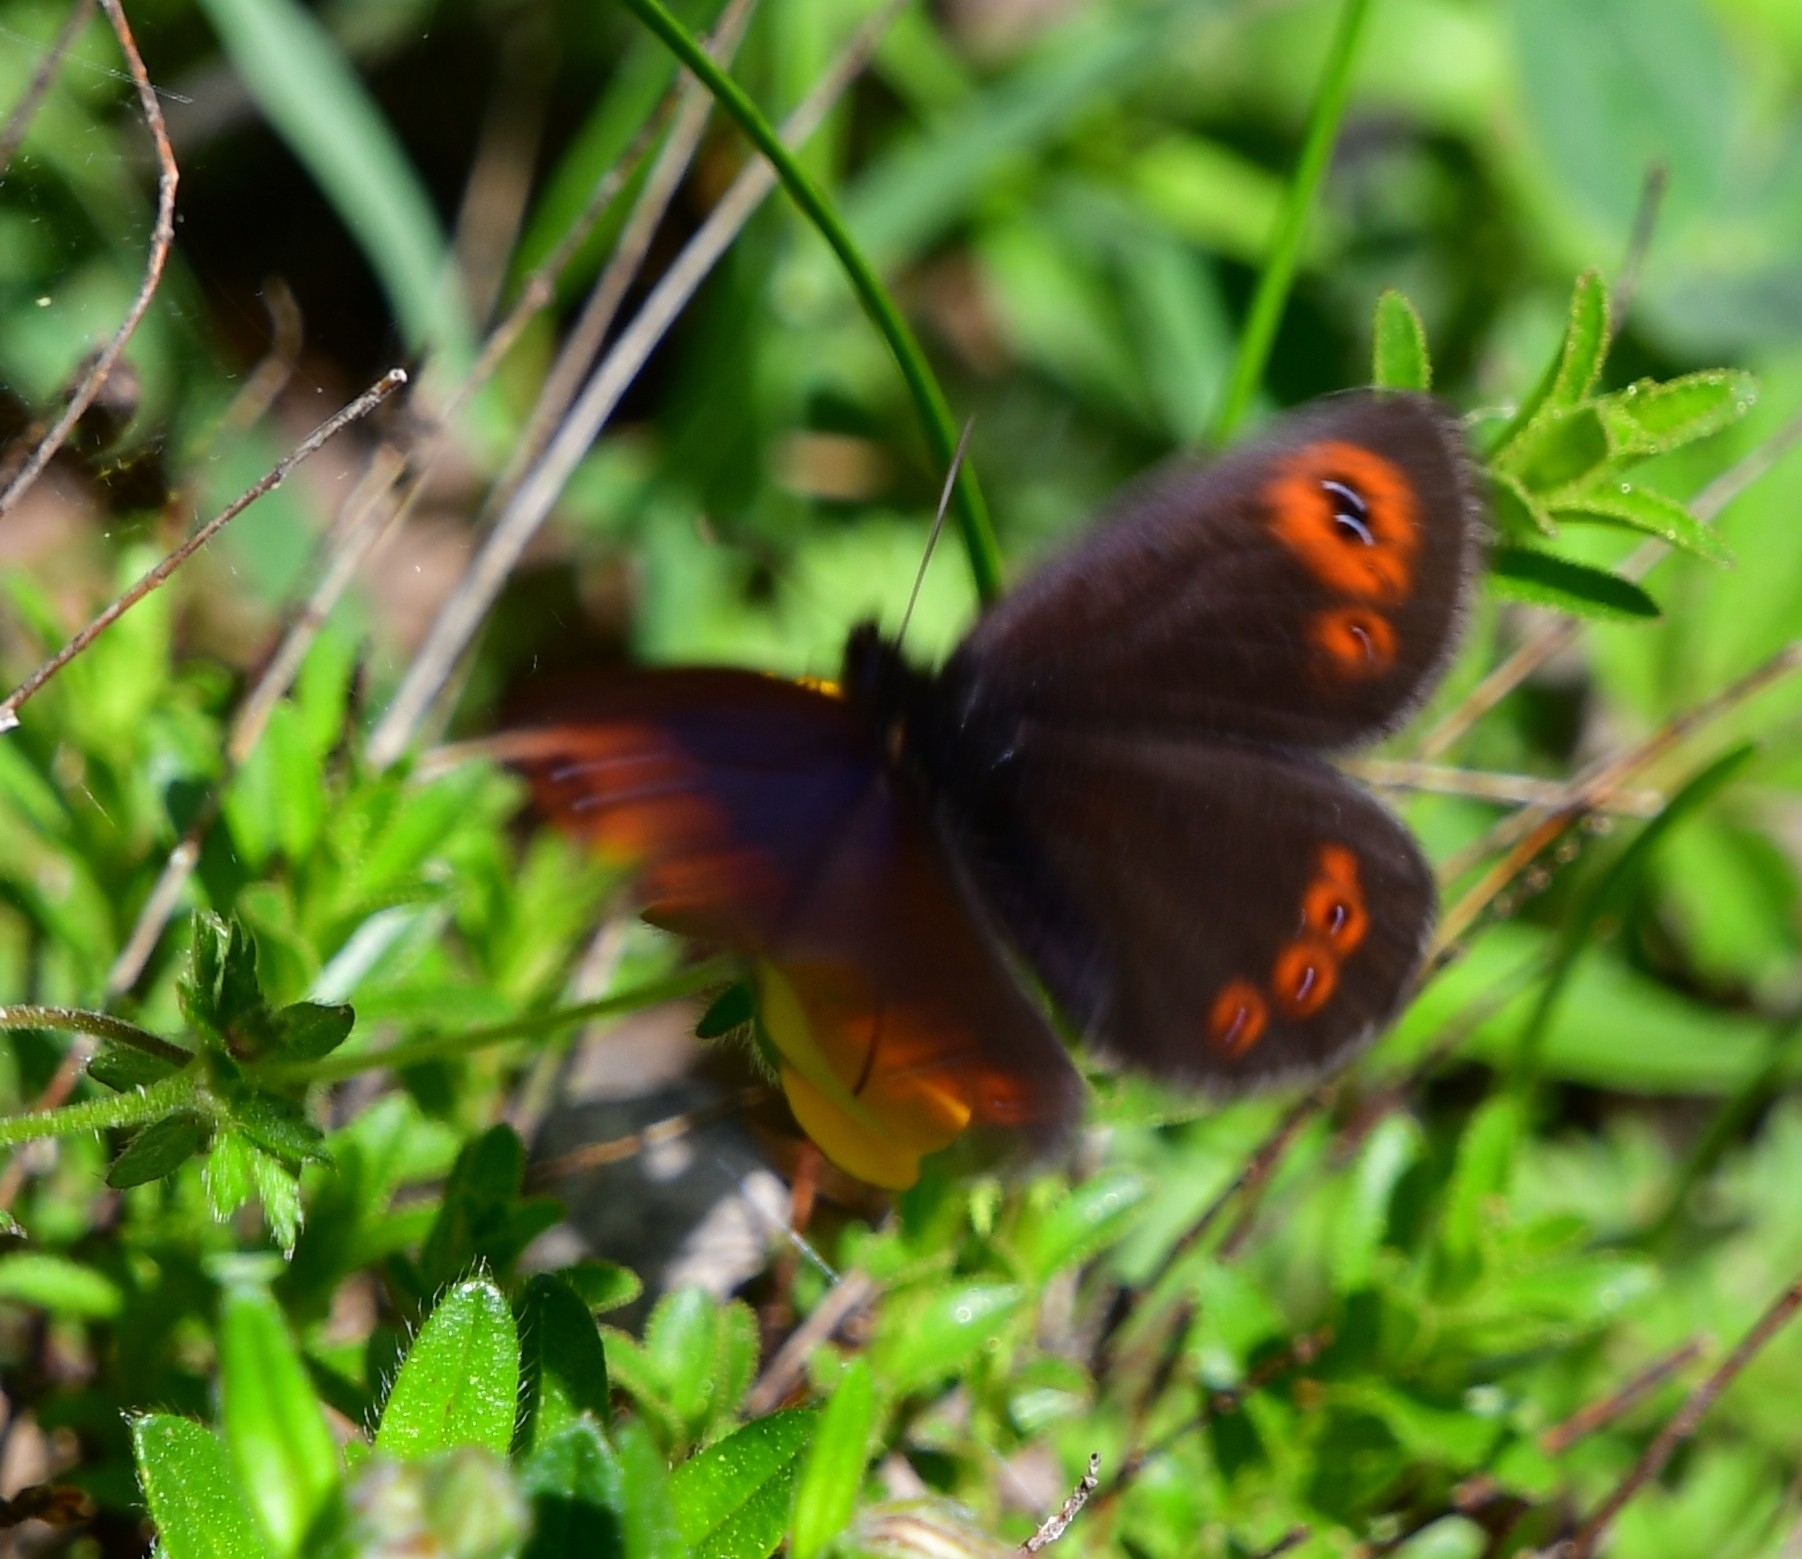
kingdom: Animalia
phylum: Arthropoda
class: Insecta
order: Lepidoptera
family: Nymphalidae
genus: Erebia
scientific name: Erebia medusa
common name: Woodland ringlet
